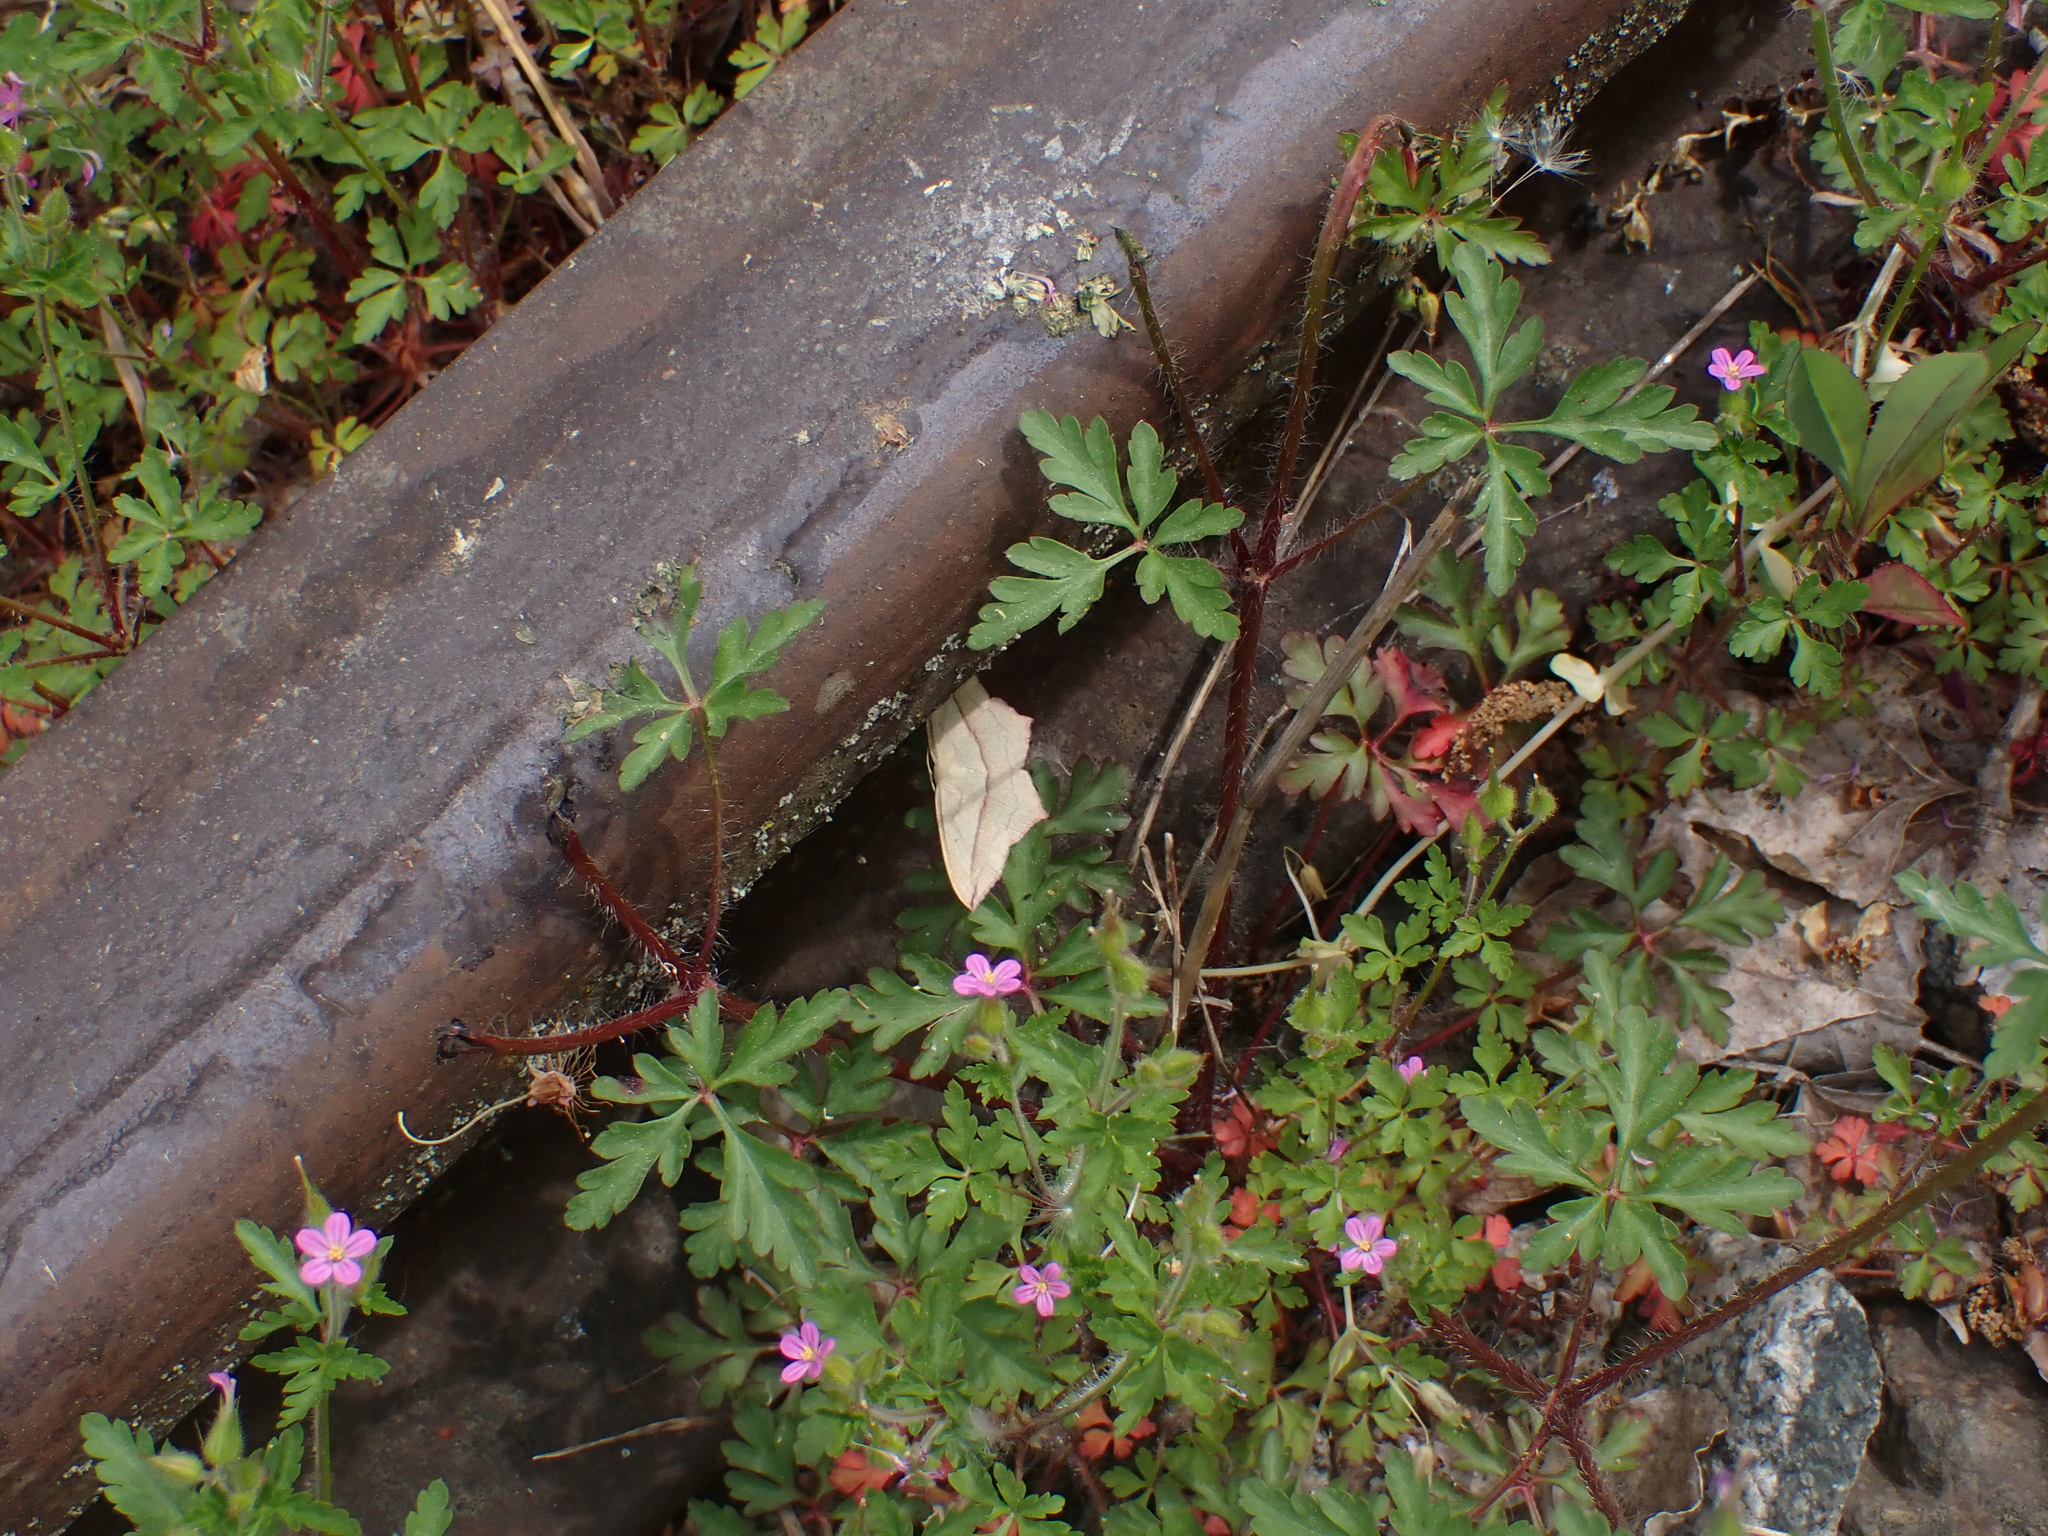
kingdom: Animalia
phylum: Arthropoda
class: Insecta
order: Lepidoptera
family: Geometridae
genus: Timandra
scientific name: Timandra comae
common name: Blood-vein
